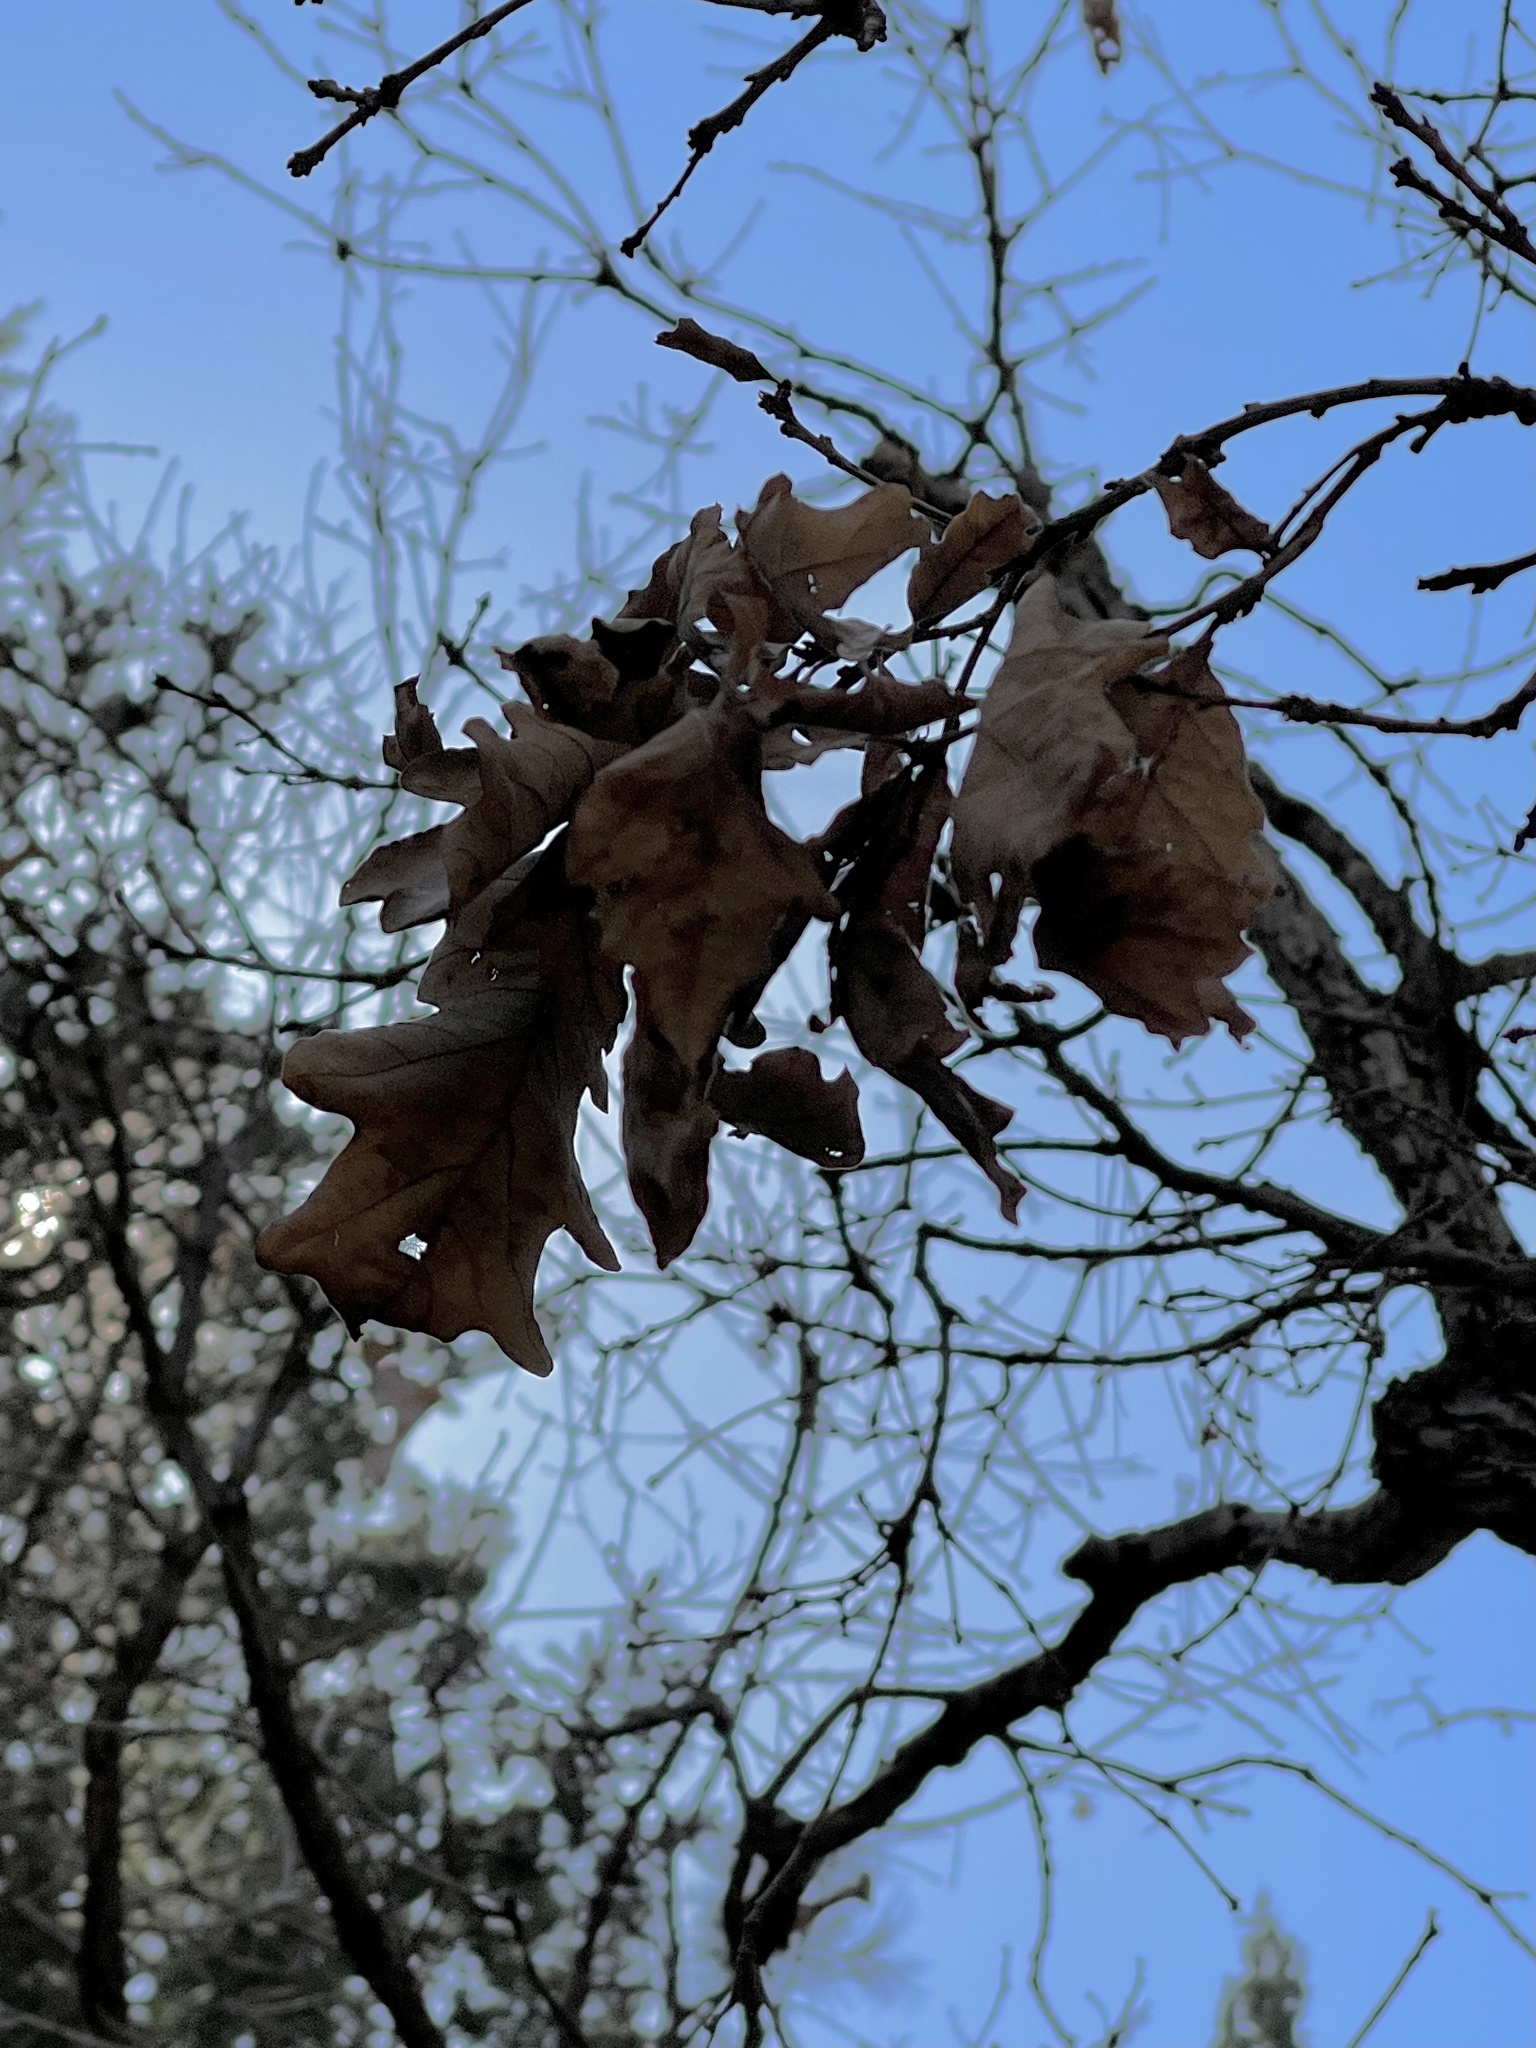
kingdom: Plantae
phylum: Tracheophyta
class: Magnoliopsida
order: Fagales
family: Fagaceae
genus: Quercus
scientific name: Quercus gambelii
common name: Gambel oak
